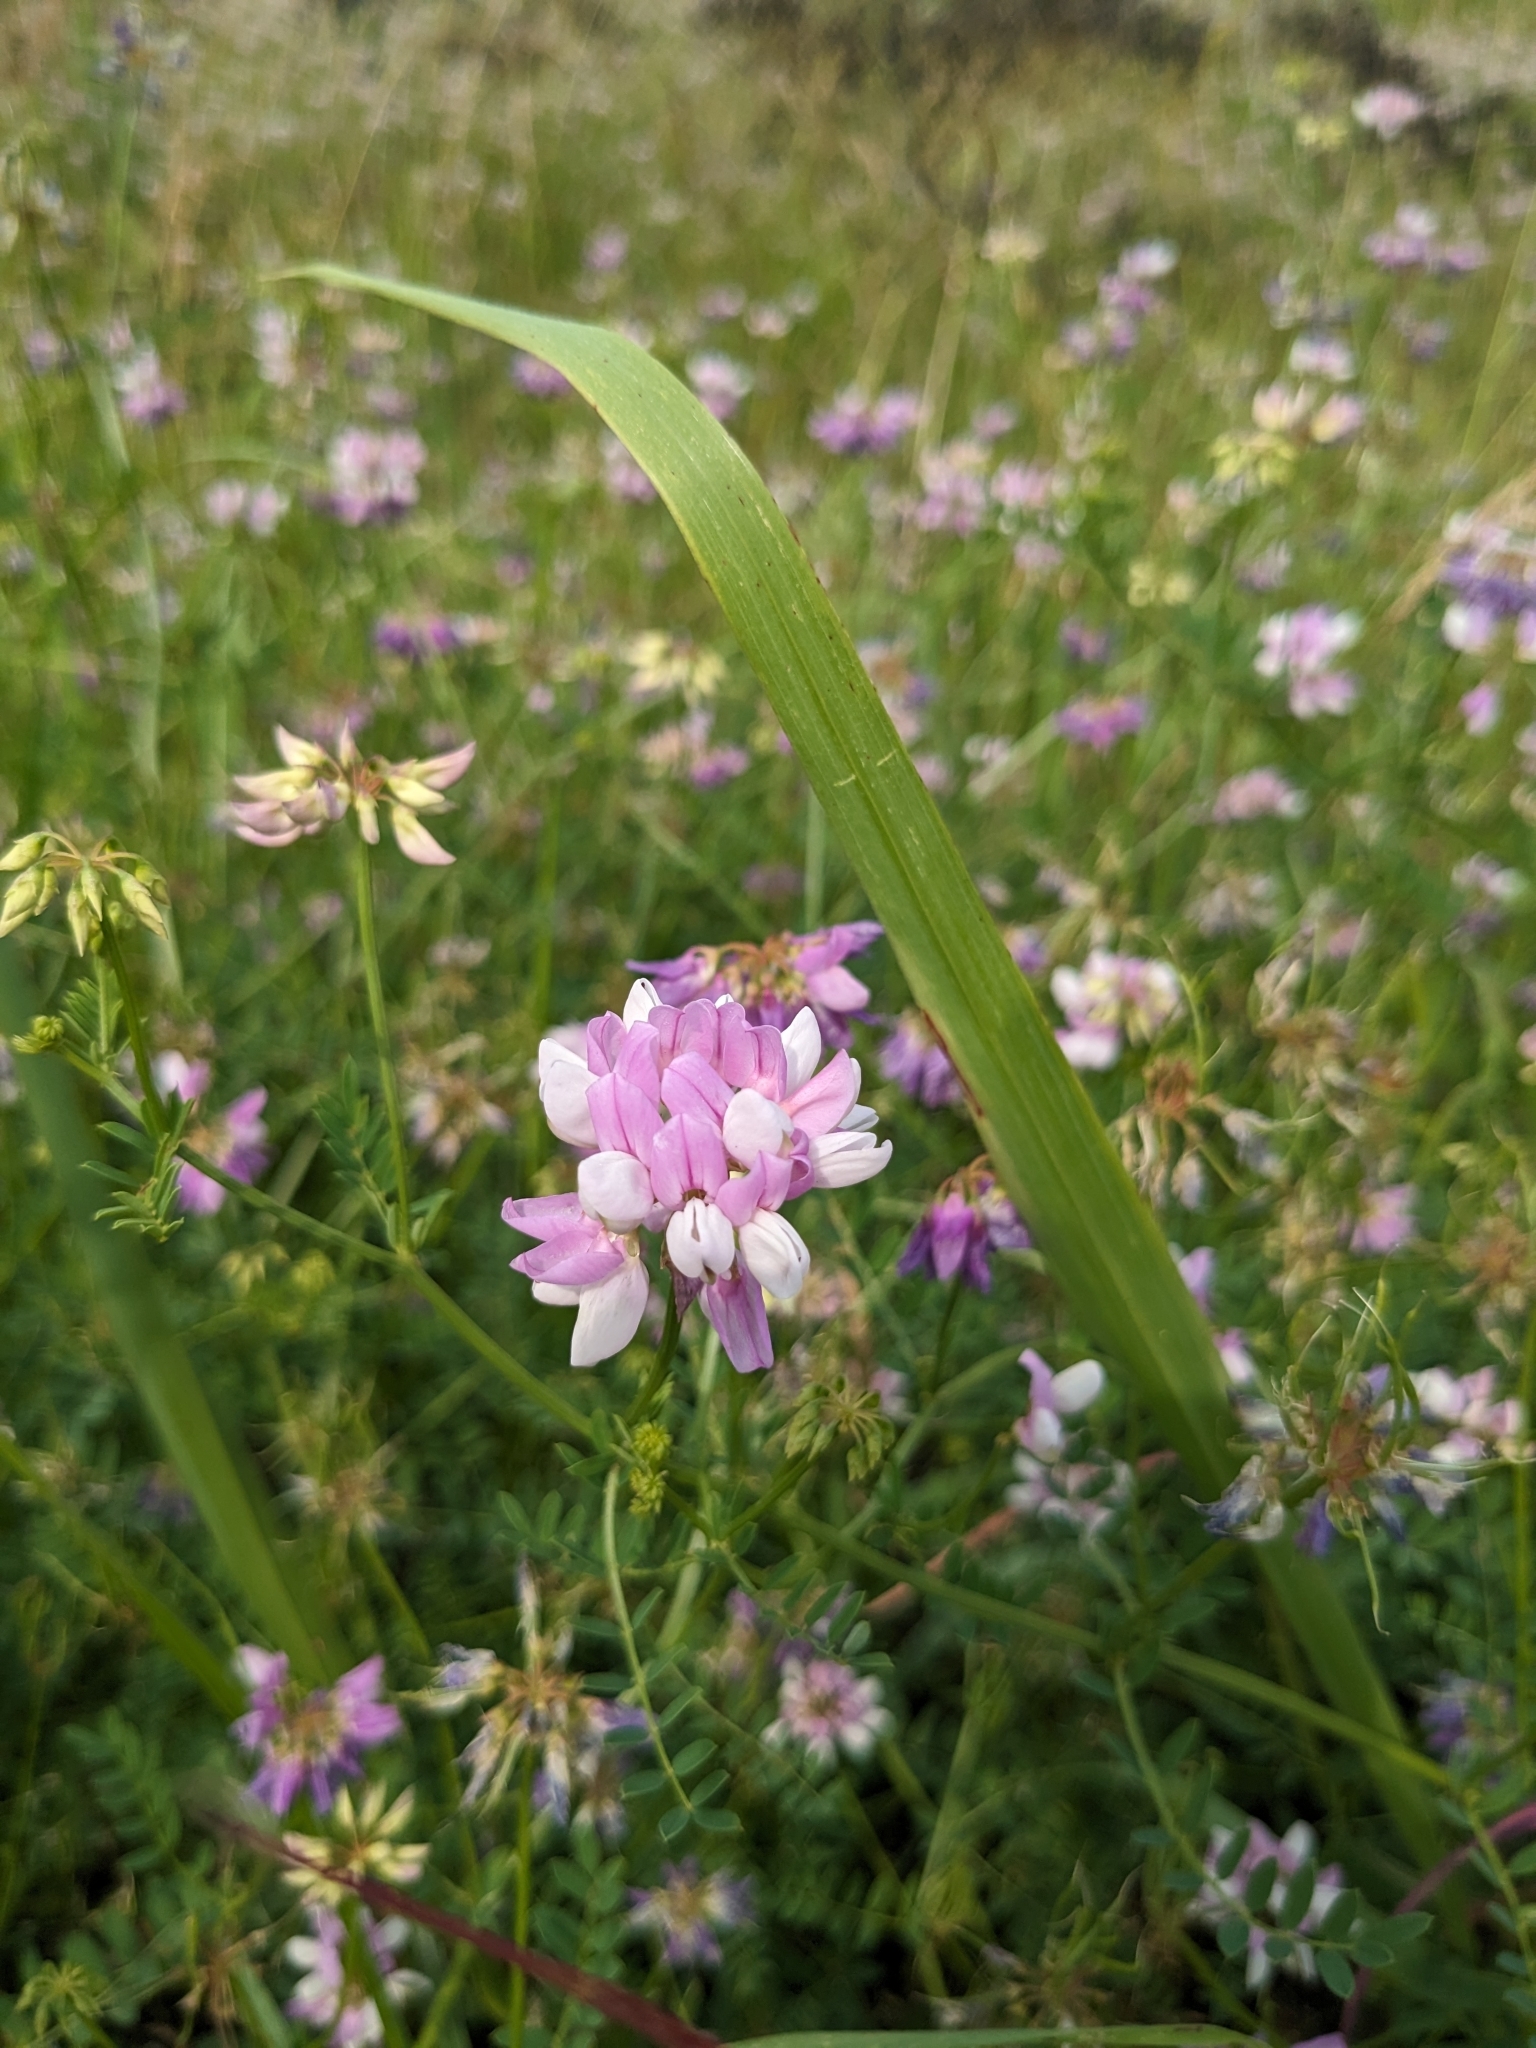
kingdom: Plantae
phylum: Tracheophyta
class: Magnoliopsida
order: Fabales
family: Fabaceae
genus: Coronilla
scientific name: Coronilla varia
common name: Crownvetch
